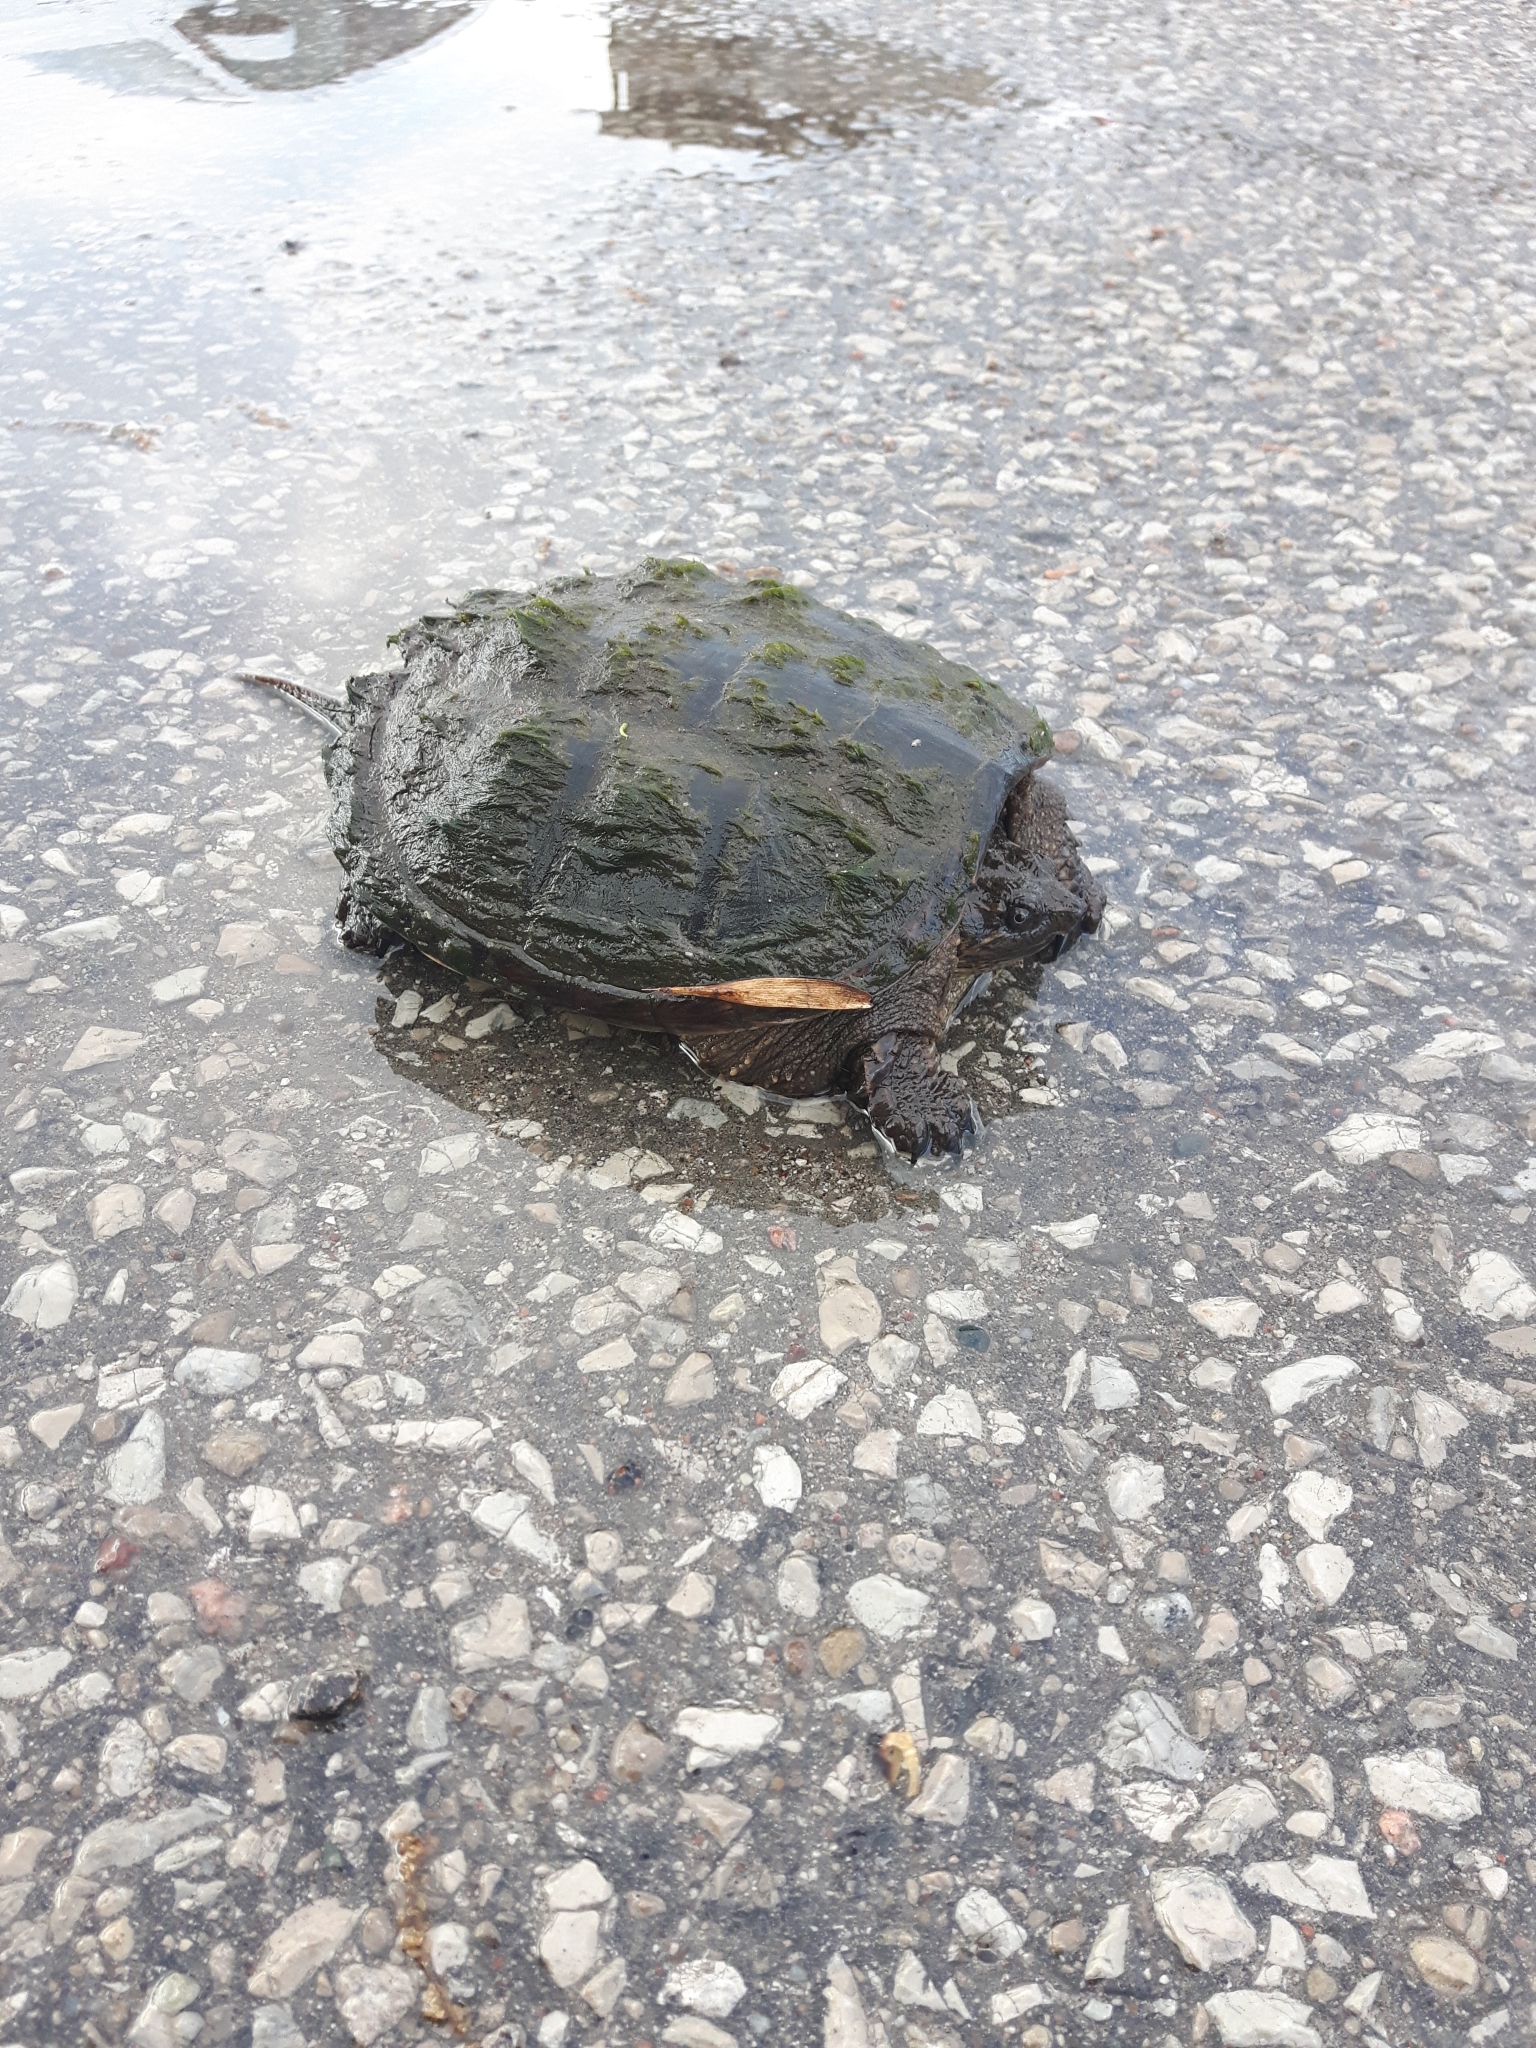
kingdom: Animalia
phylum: Chordata
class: Testudines
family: Chelydridae
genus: Chelydra
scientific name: Chelydra serpentina
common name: Common snapping turtle
